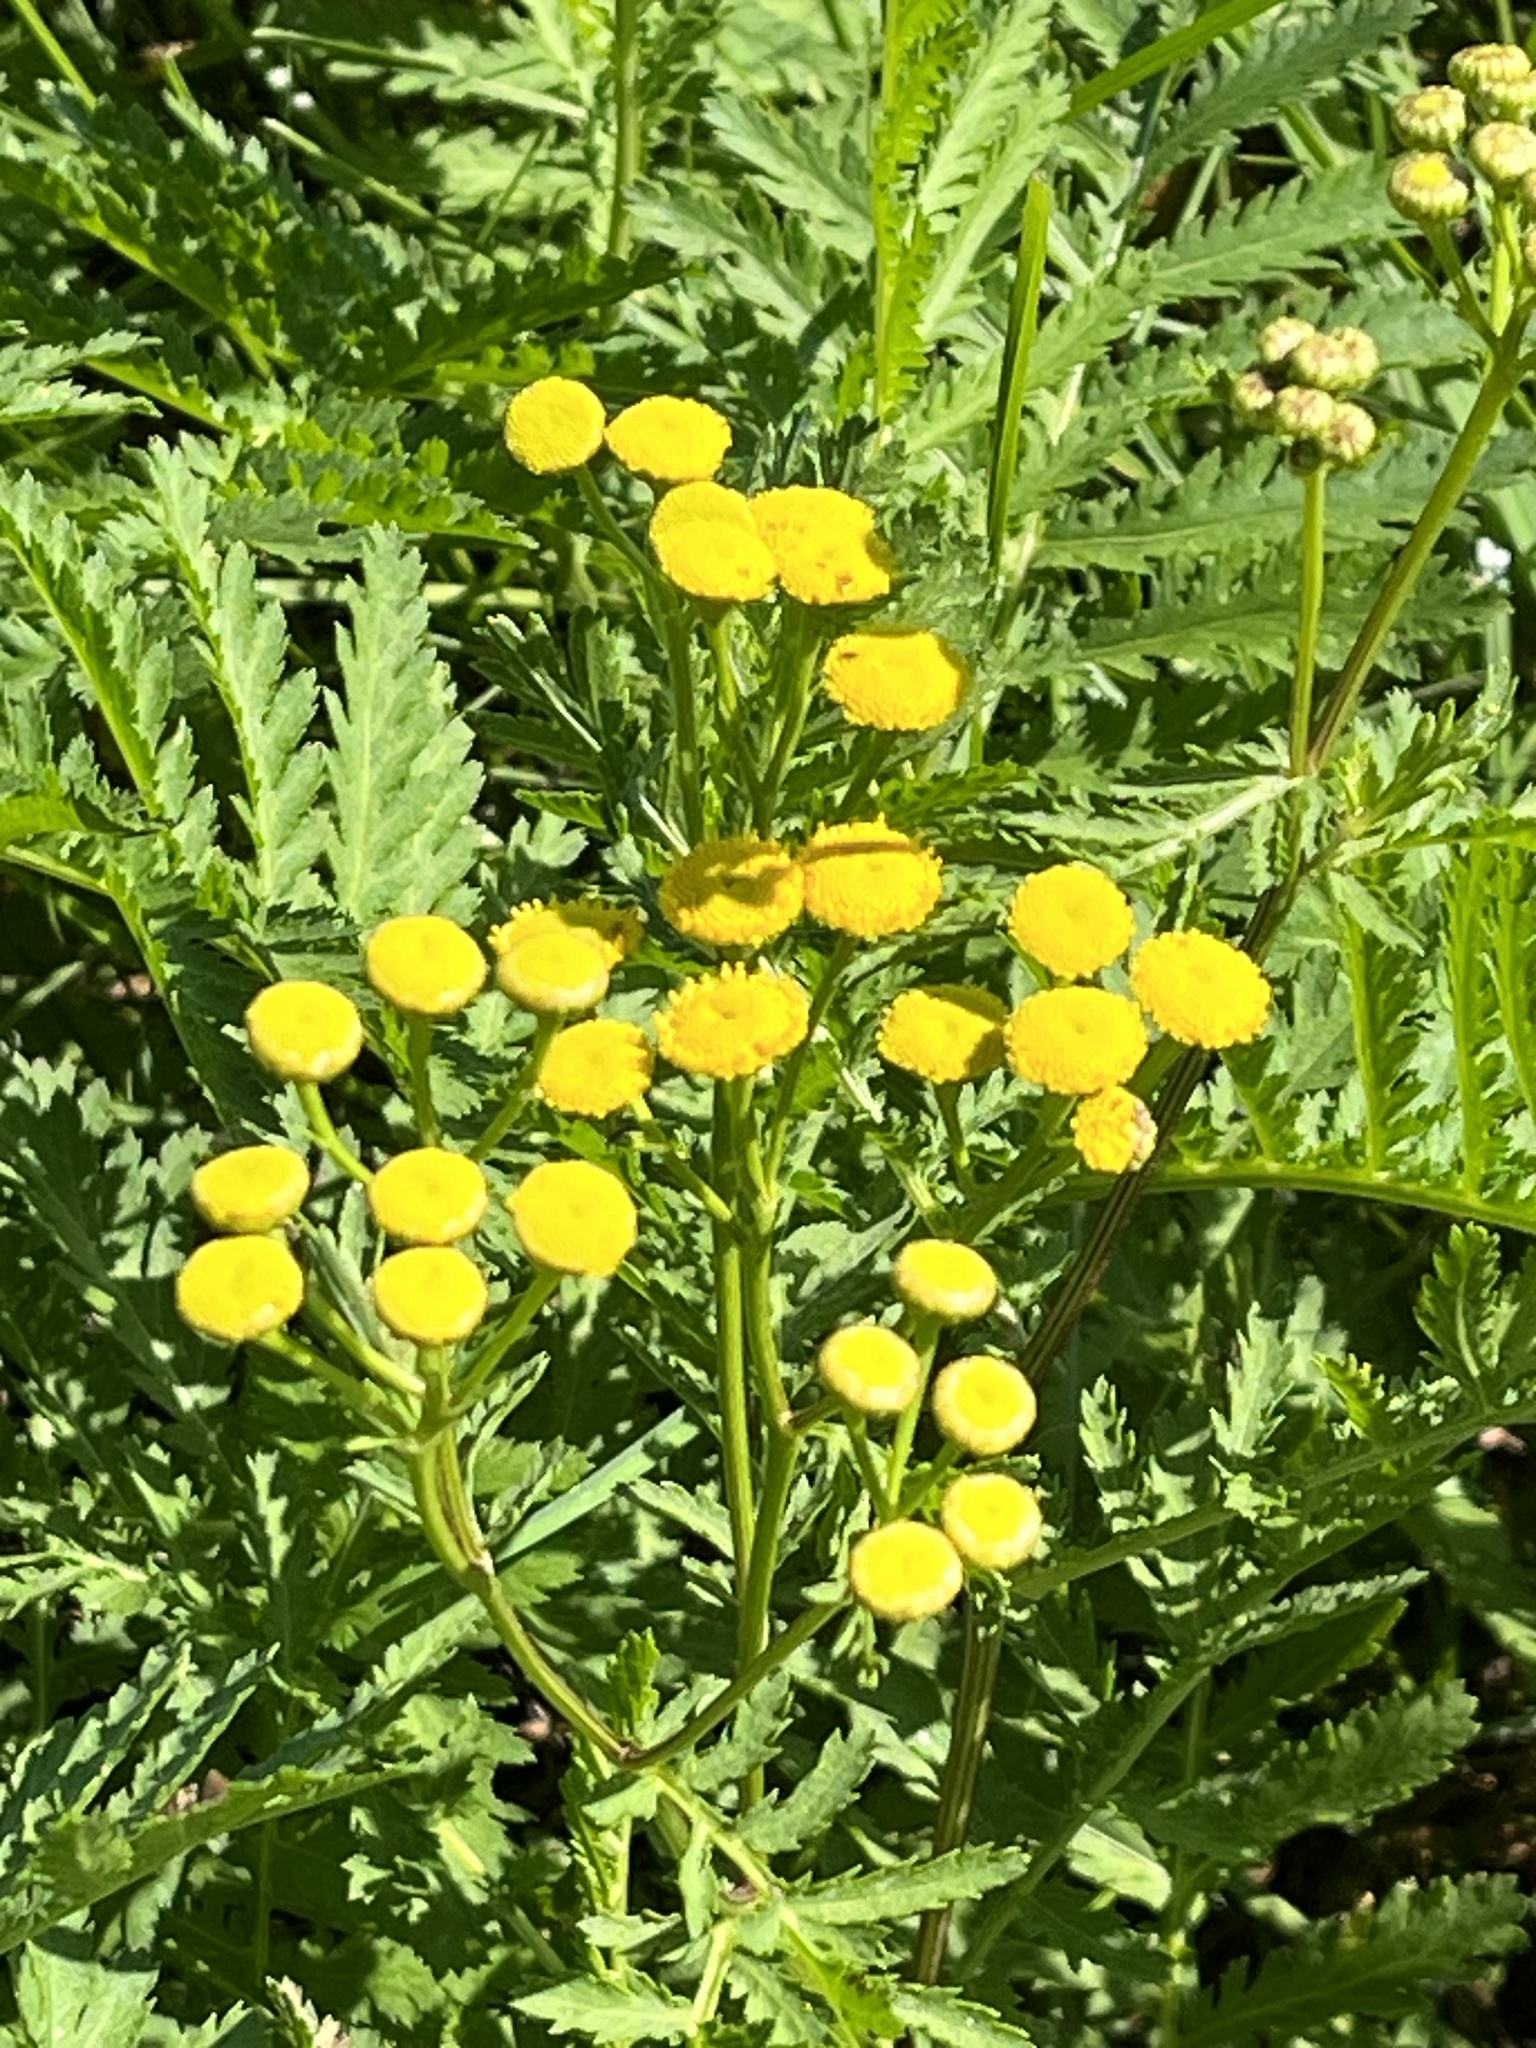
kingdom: Plantae
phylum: Tracheophyta
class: Magnoliopsida
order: Asterales
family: Asteraceae
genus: Tanacetum
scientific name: Tanacetum vulgare
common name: Common tansy
